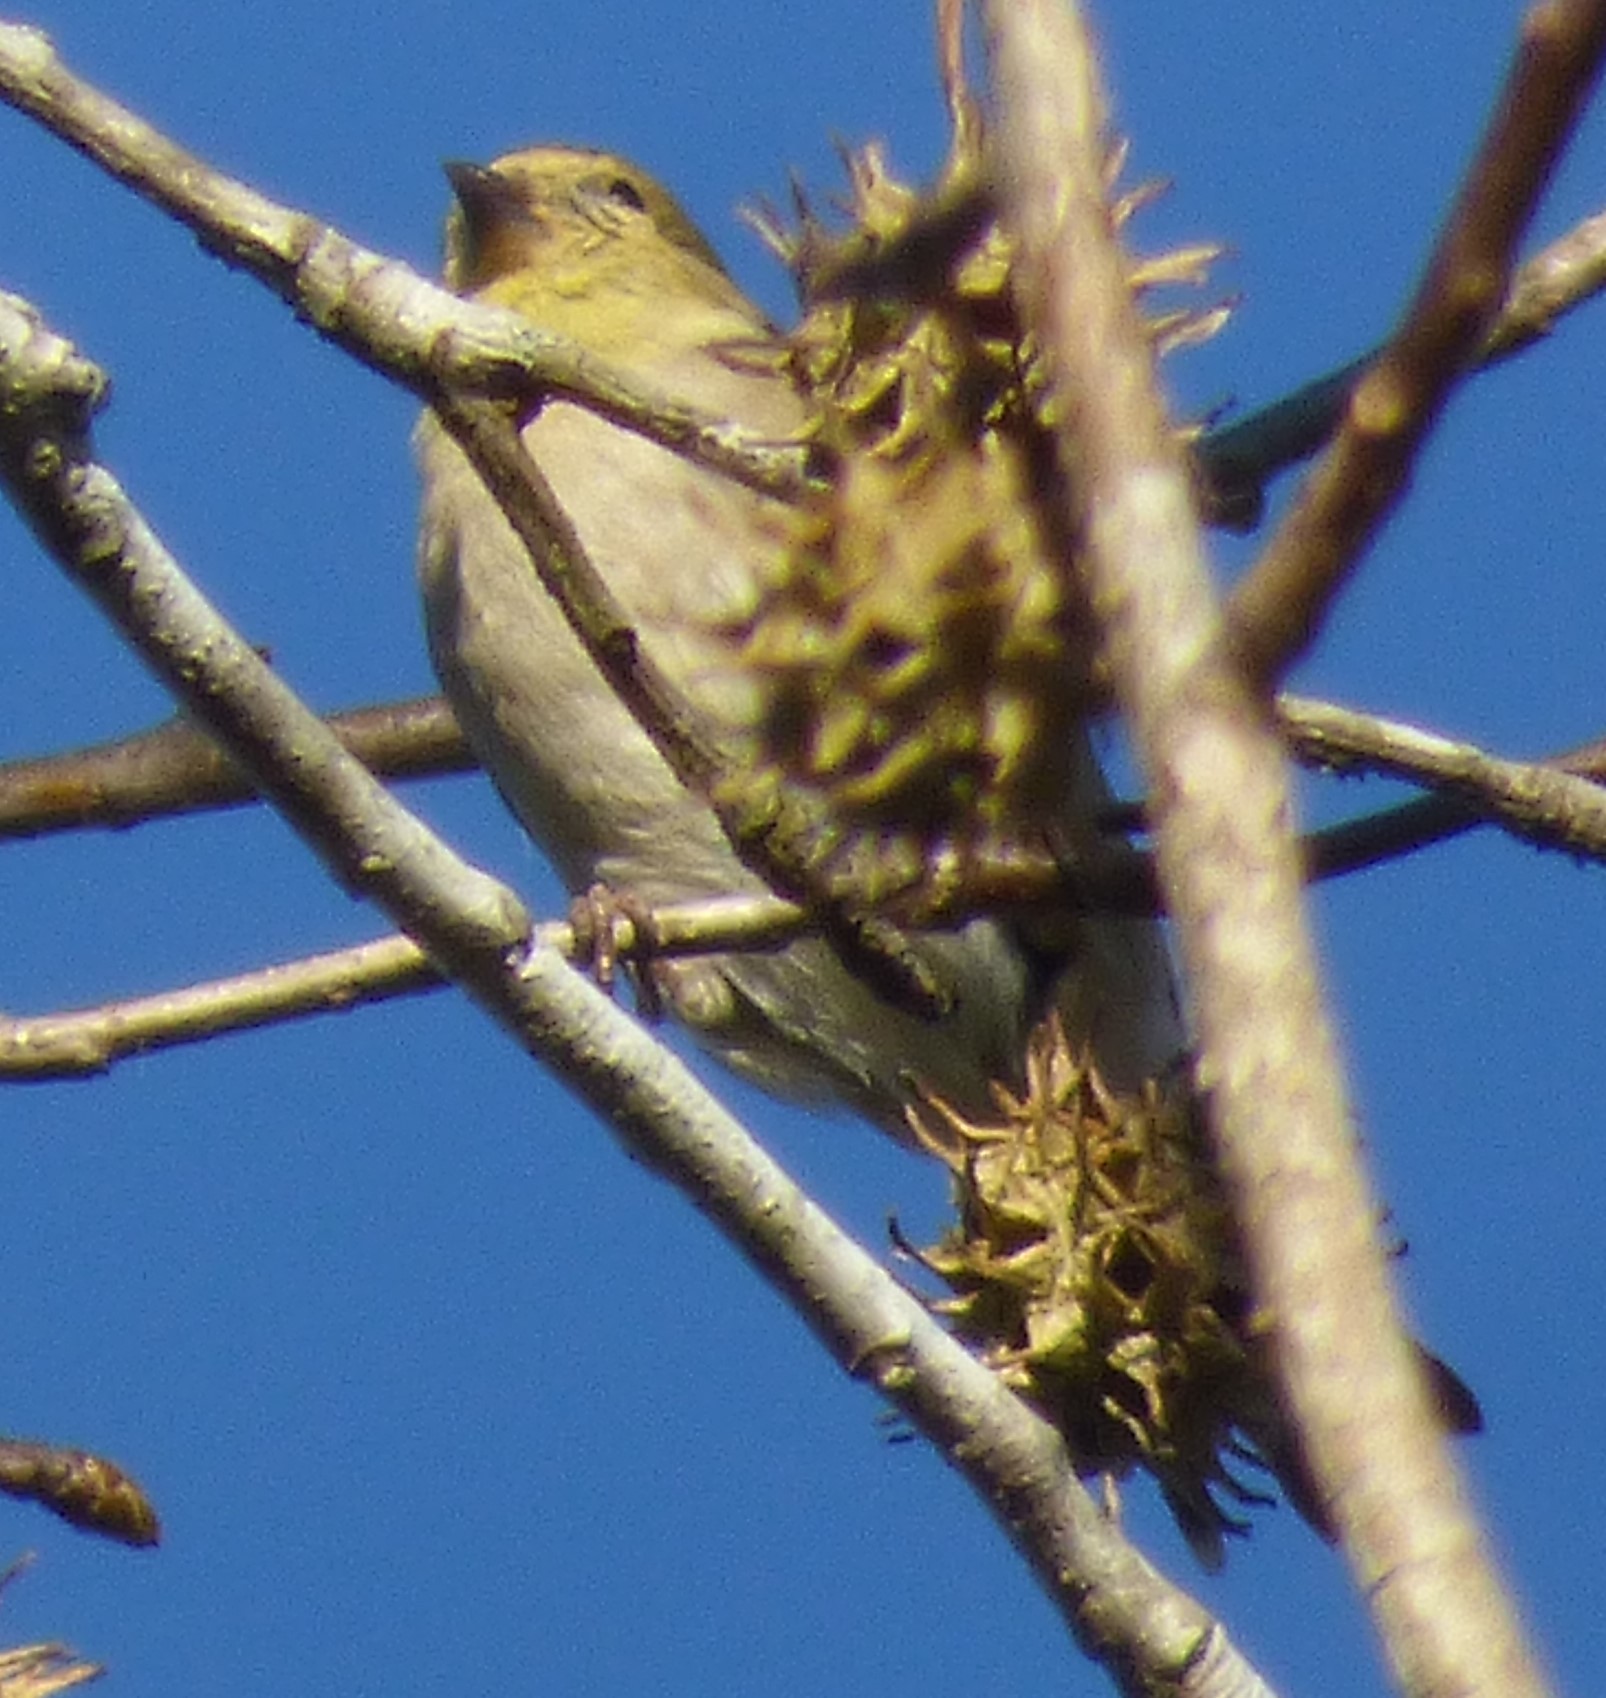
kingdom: Animalia
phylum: Chordata
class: Aves
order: Passeriformes
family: Fringillidae
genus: Spinus
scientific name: Spinus tristis
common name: American goldfinch
